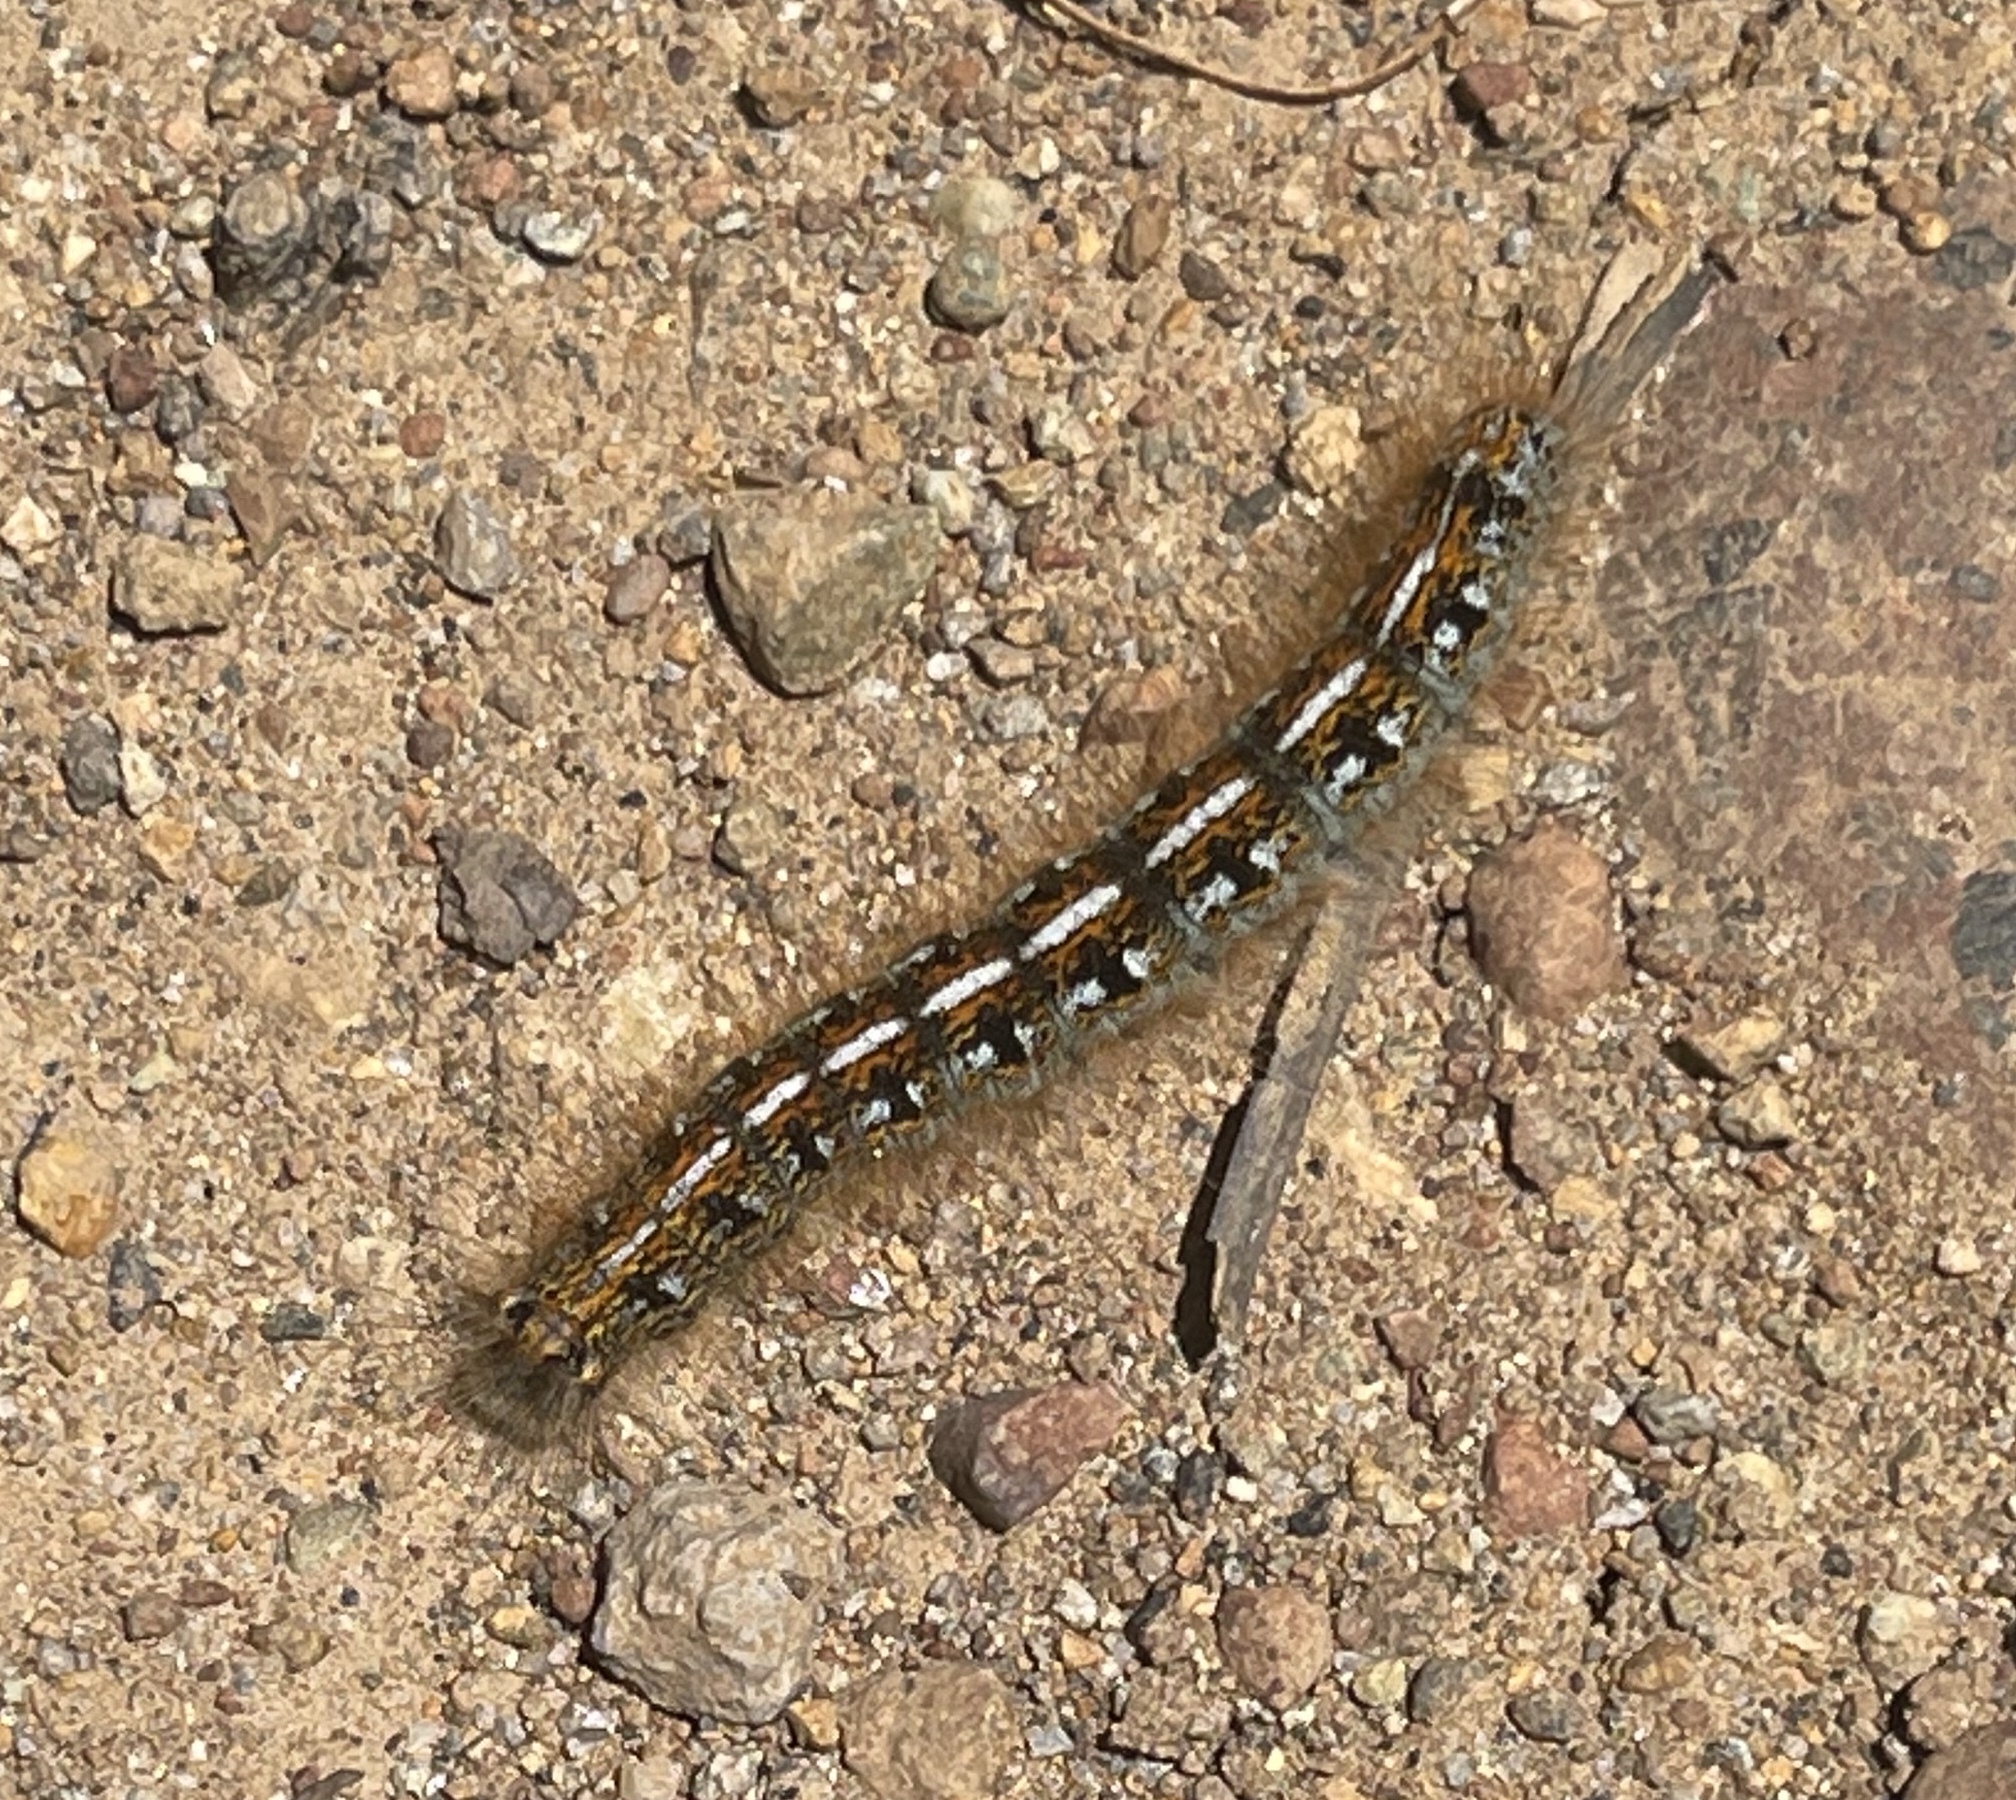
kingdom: Animalia
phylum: Arthropoda
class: Insecta
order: Lepidoptera
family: Lasiocampidae
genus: Malacosoma
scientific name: Malacosoma californica
